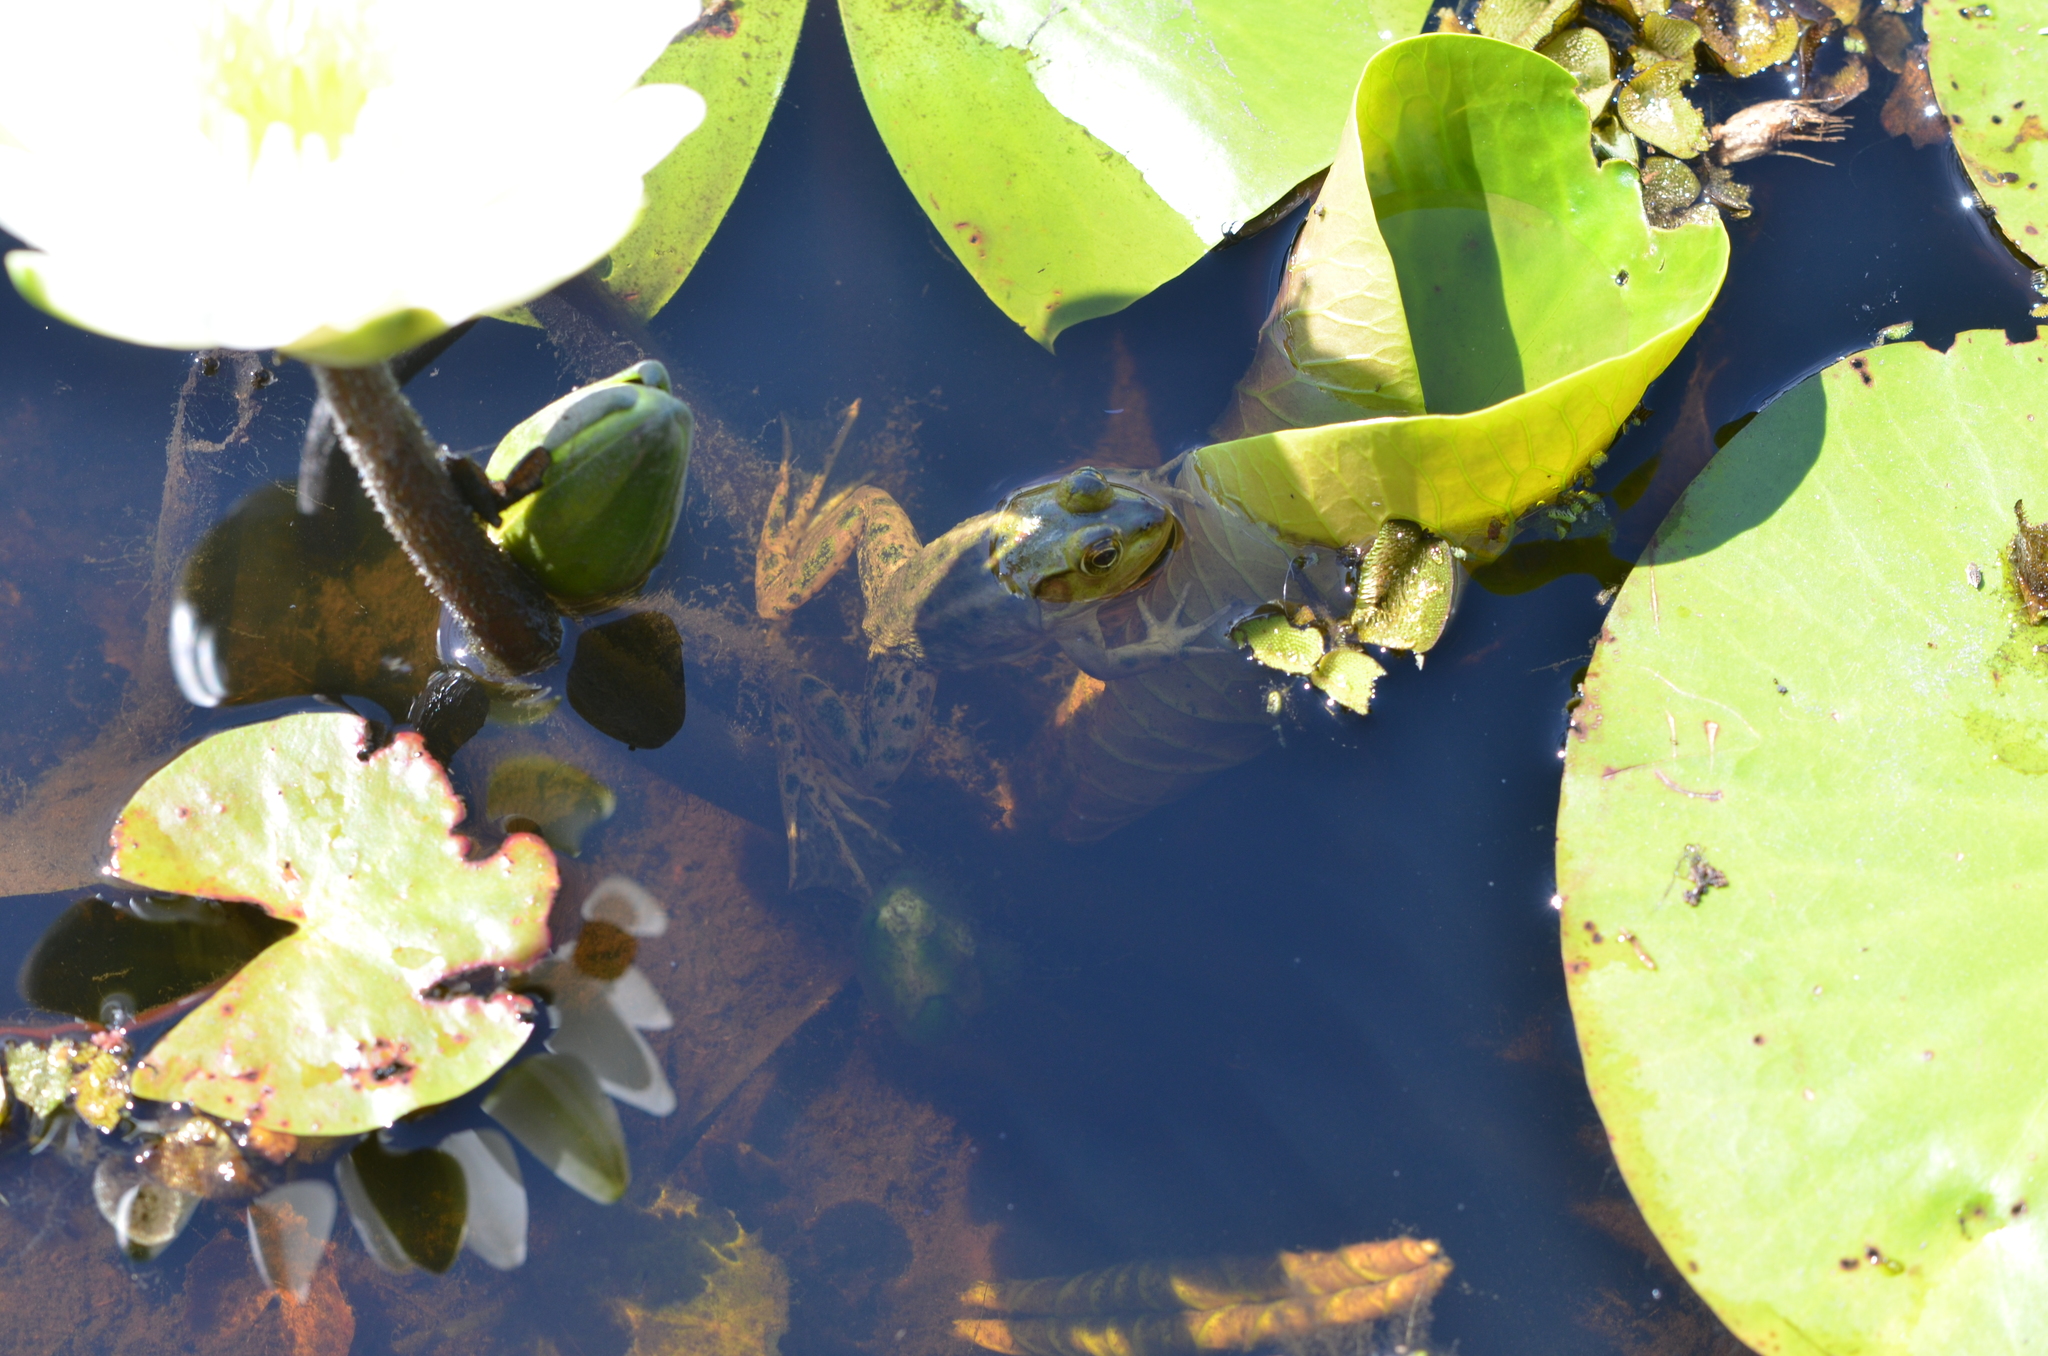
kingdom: Animalia
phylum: Chordata
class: Amphibia
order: Anura
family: Ranidae
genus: Lithobates
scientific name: Lithobates grylio
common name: Pig frog
